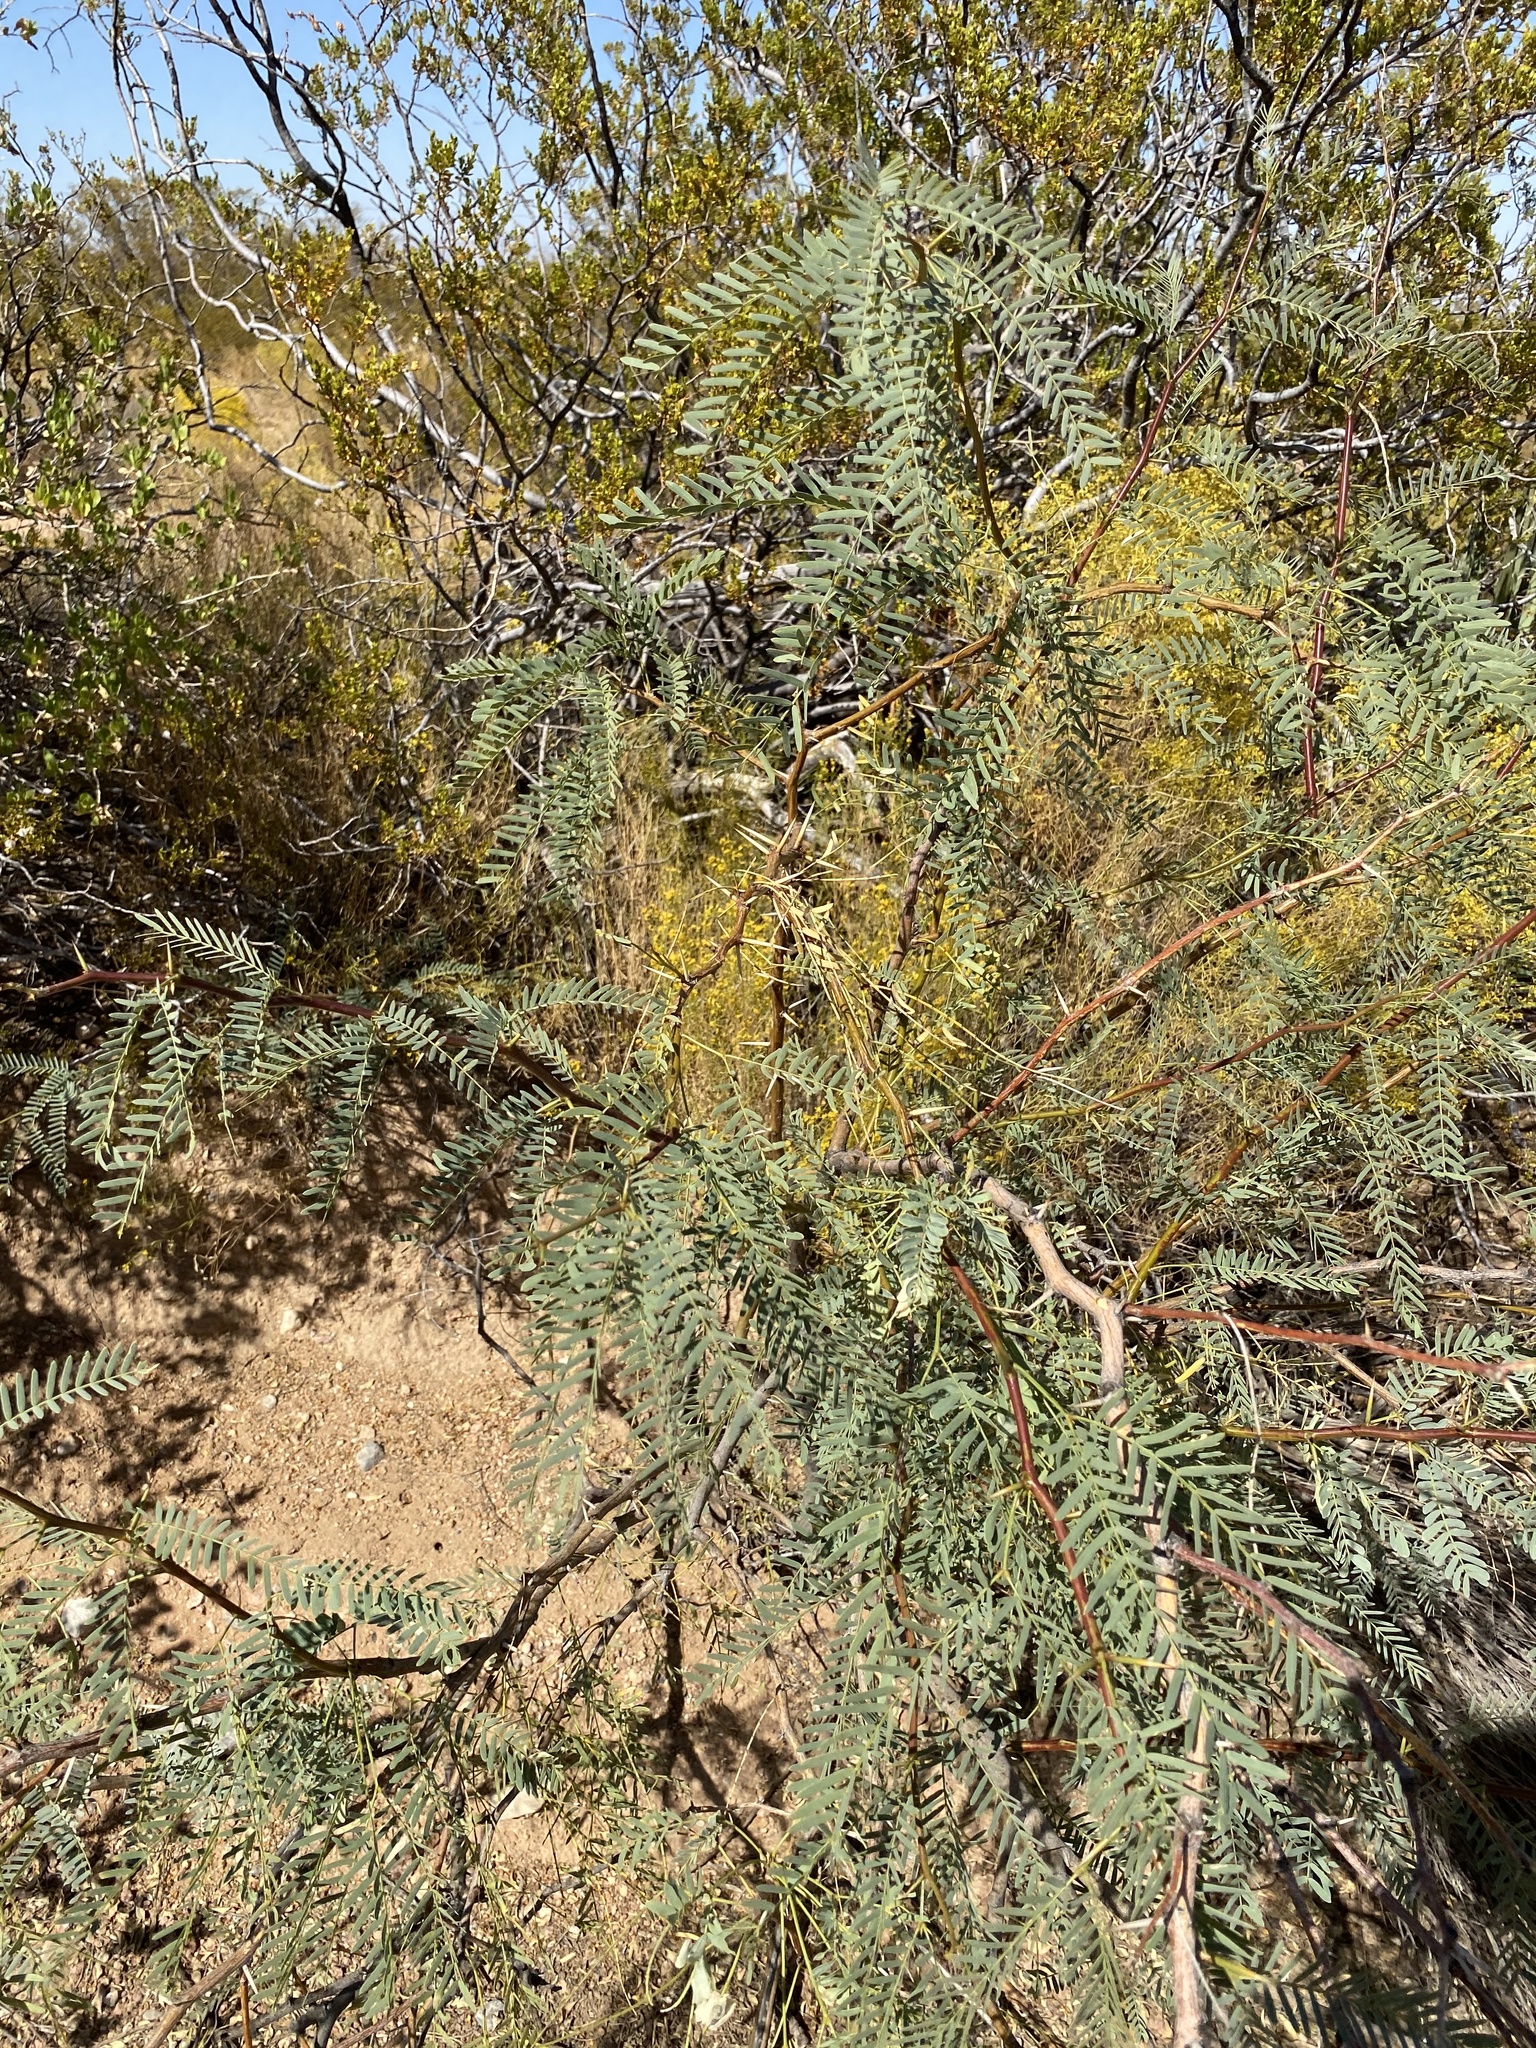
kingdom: Plantae
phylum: Tracheophyta
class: Magnoliopsida
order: Fabales
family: Fabaceae
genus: Prosopis
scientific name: Prosopis glandulosa
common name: Honey mesquite
